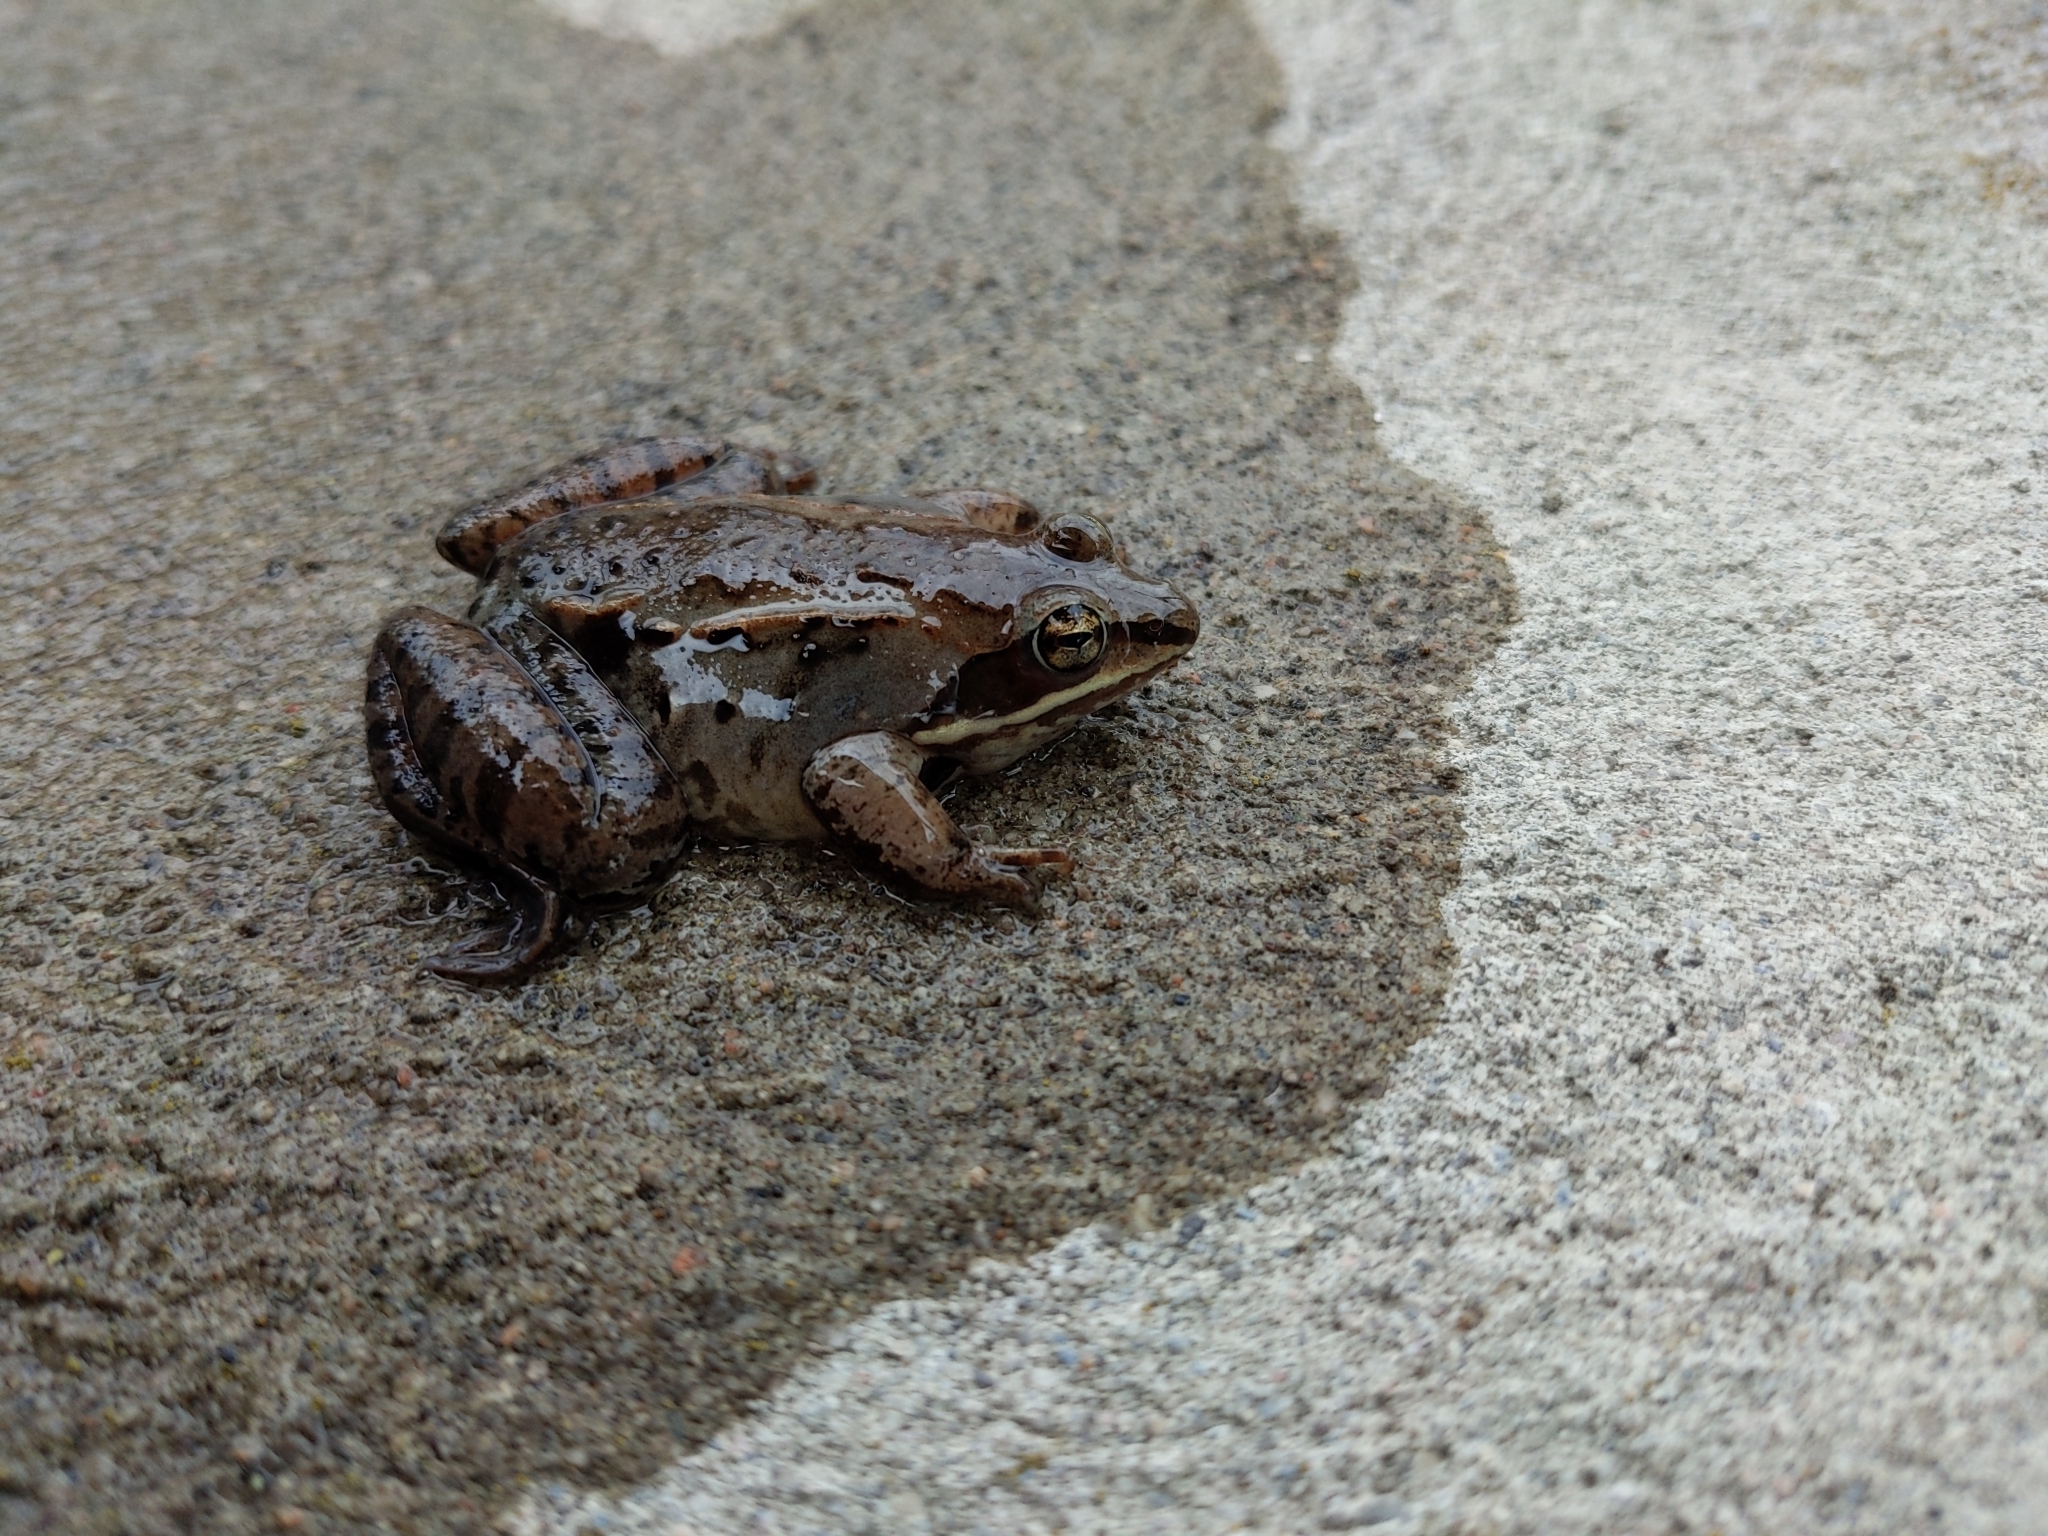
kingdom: Animalia
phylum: Chordata
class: Amphibia
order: Anura
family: Ranidae
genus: Lithobates
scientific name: Lithobates sylvaticus
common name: Wood frog
